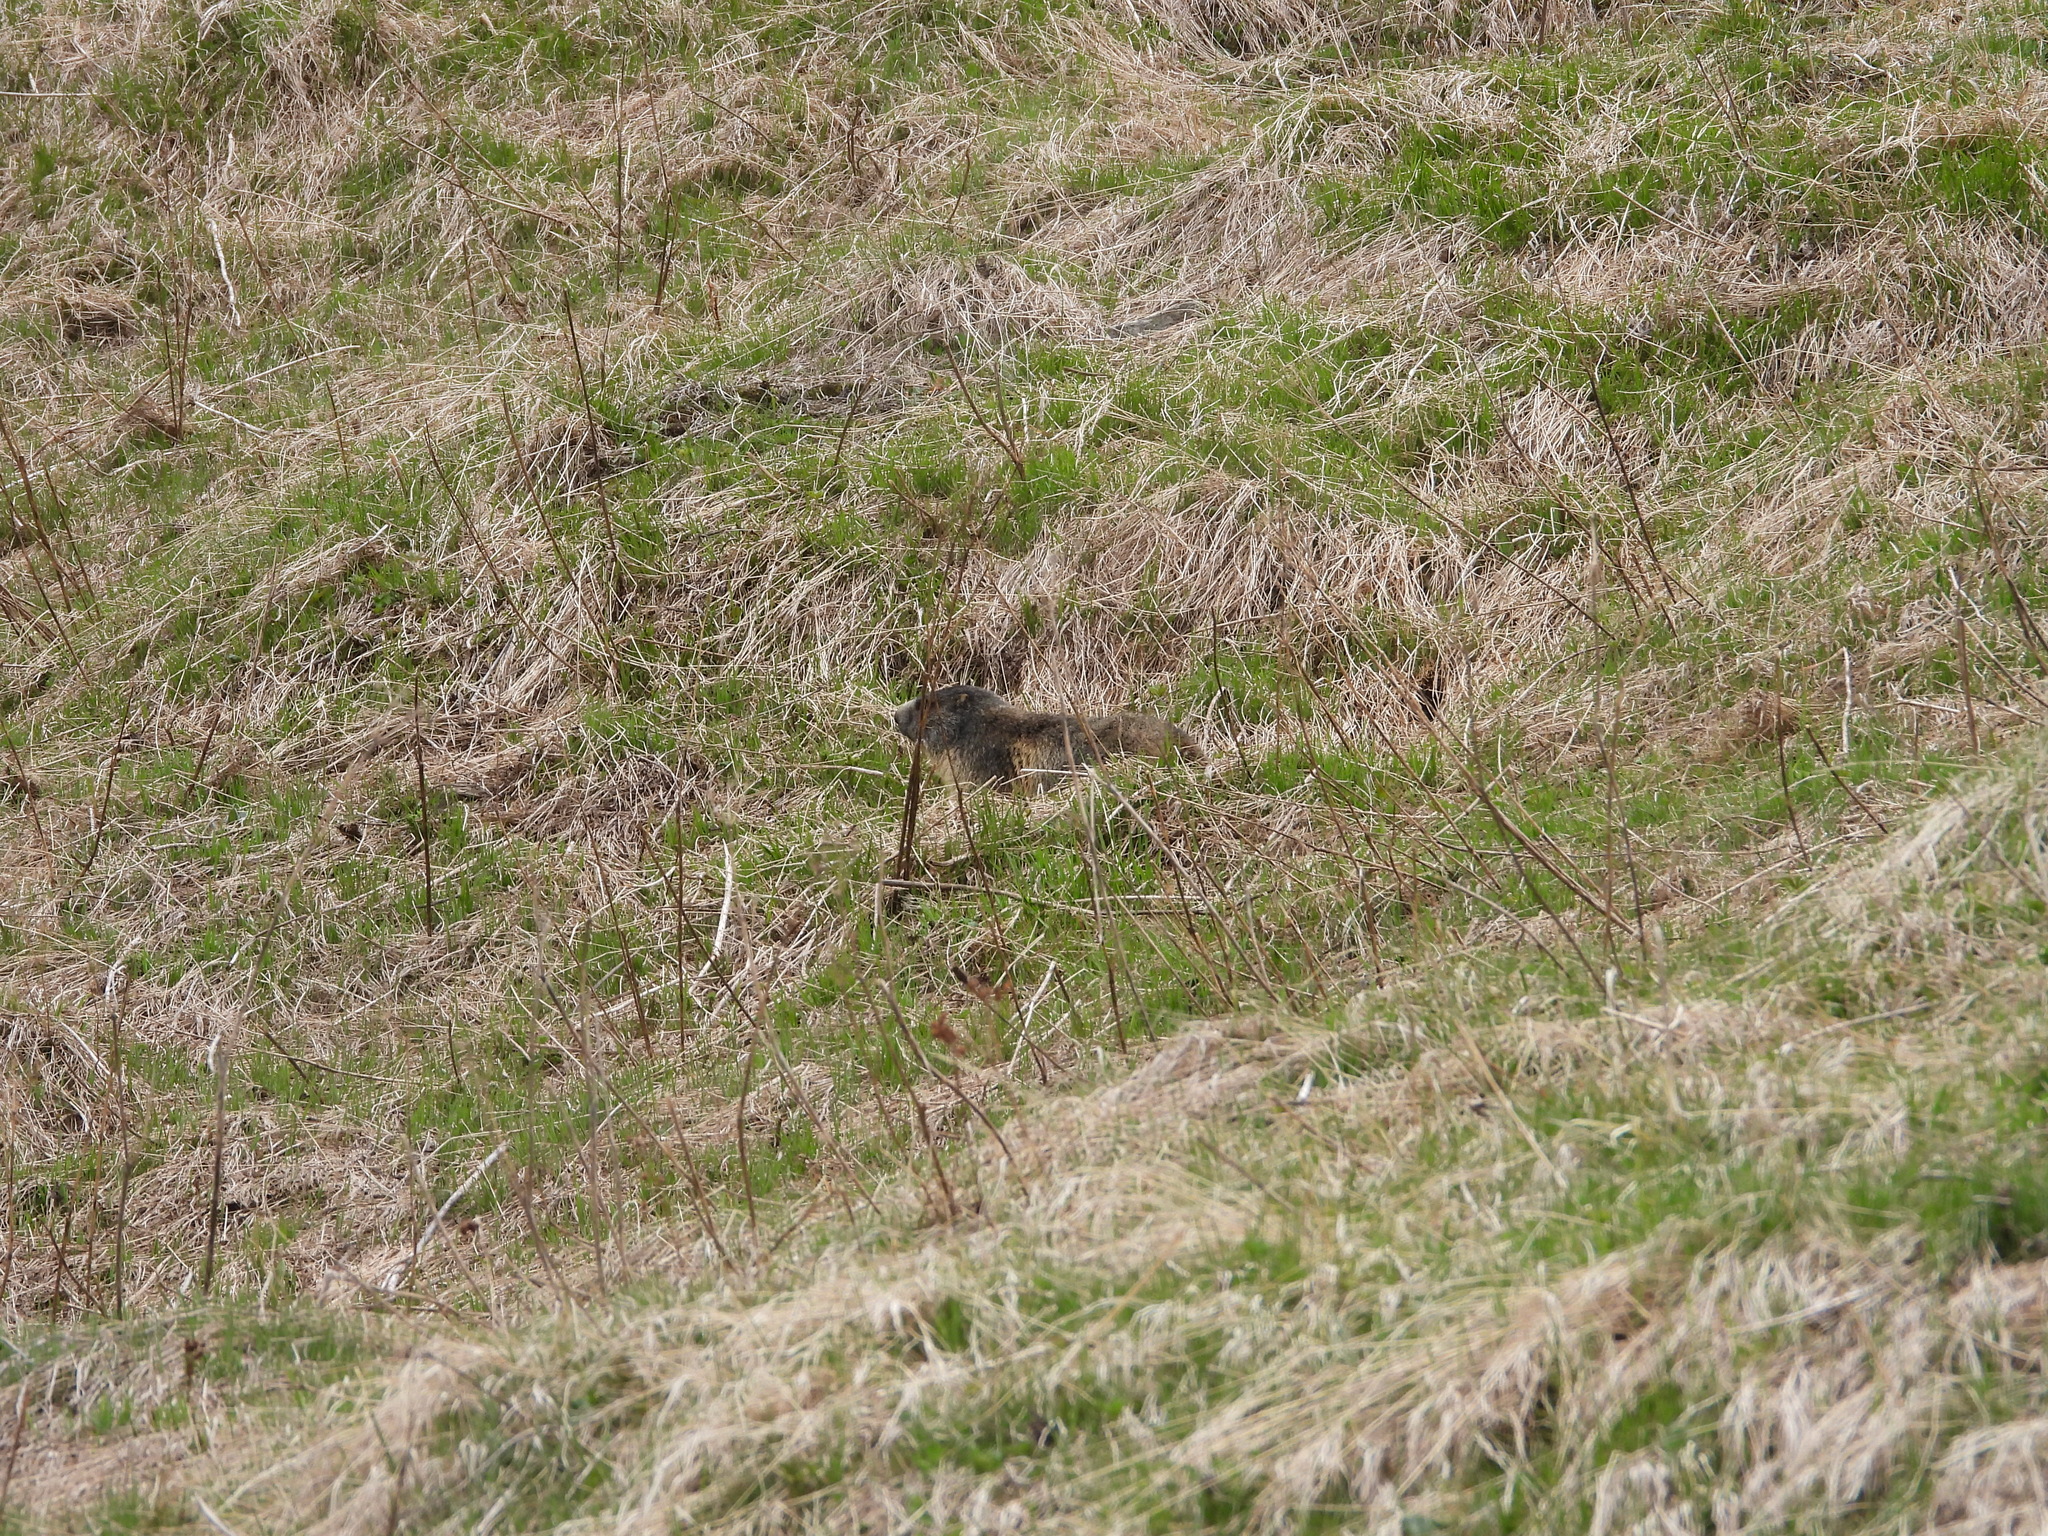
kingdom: Animalia
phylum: Chordata
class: Mammalia
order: Rodentia
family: Sciuridae
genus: Marmota
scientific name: Marmota marmota
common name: Alpine marmot
